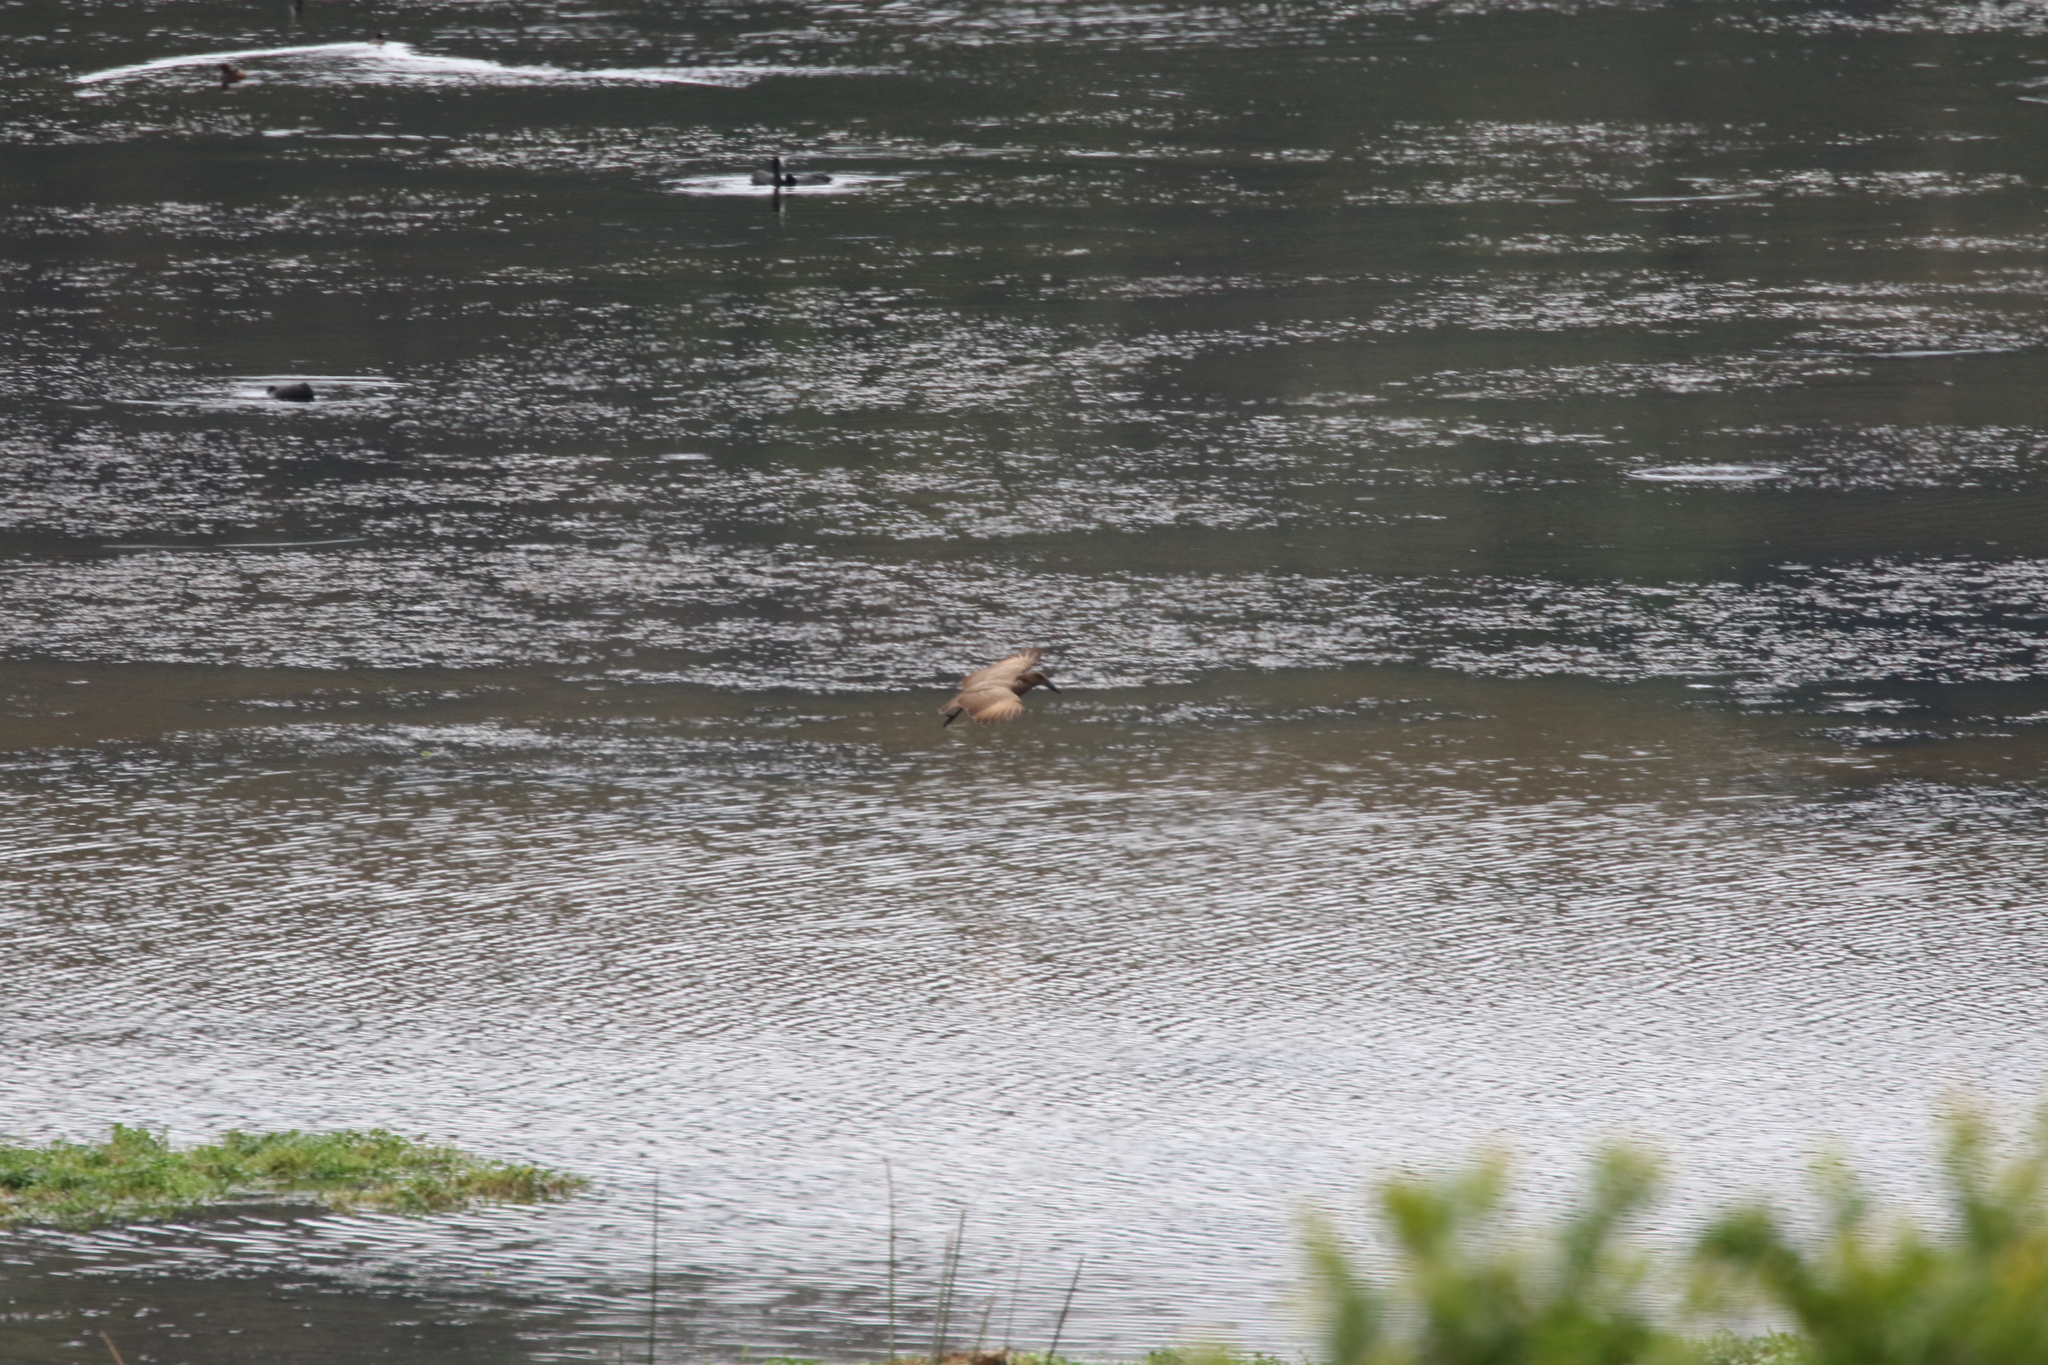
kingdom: Animalia
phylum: Chordata
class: Aves
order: Pelecaniformes
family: Scopidae
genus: Scopus
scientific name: Scopus umbretta
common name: Hamerkop
